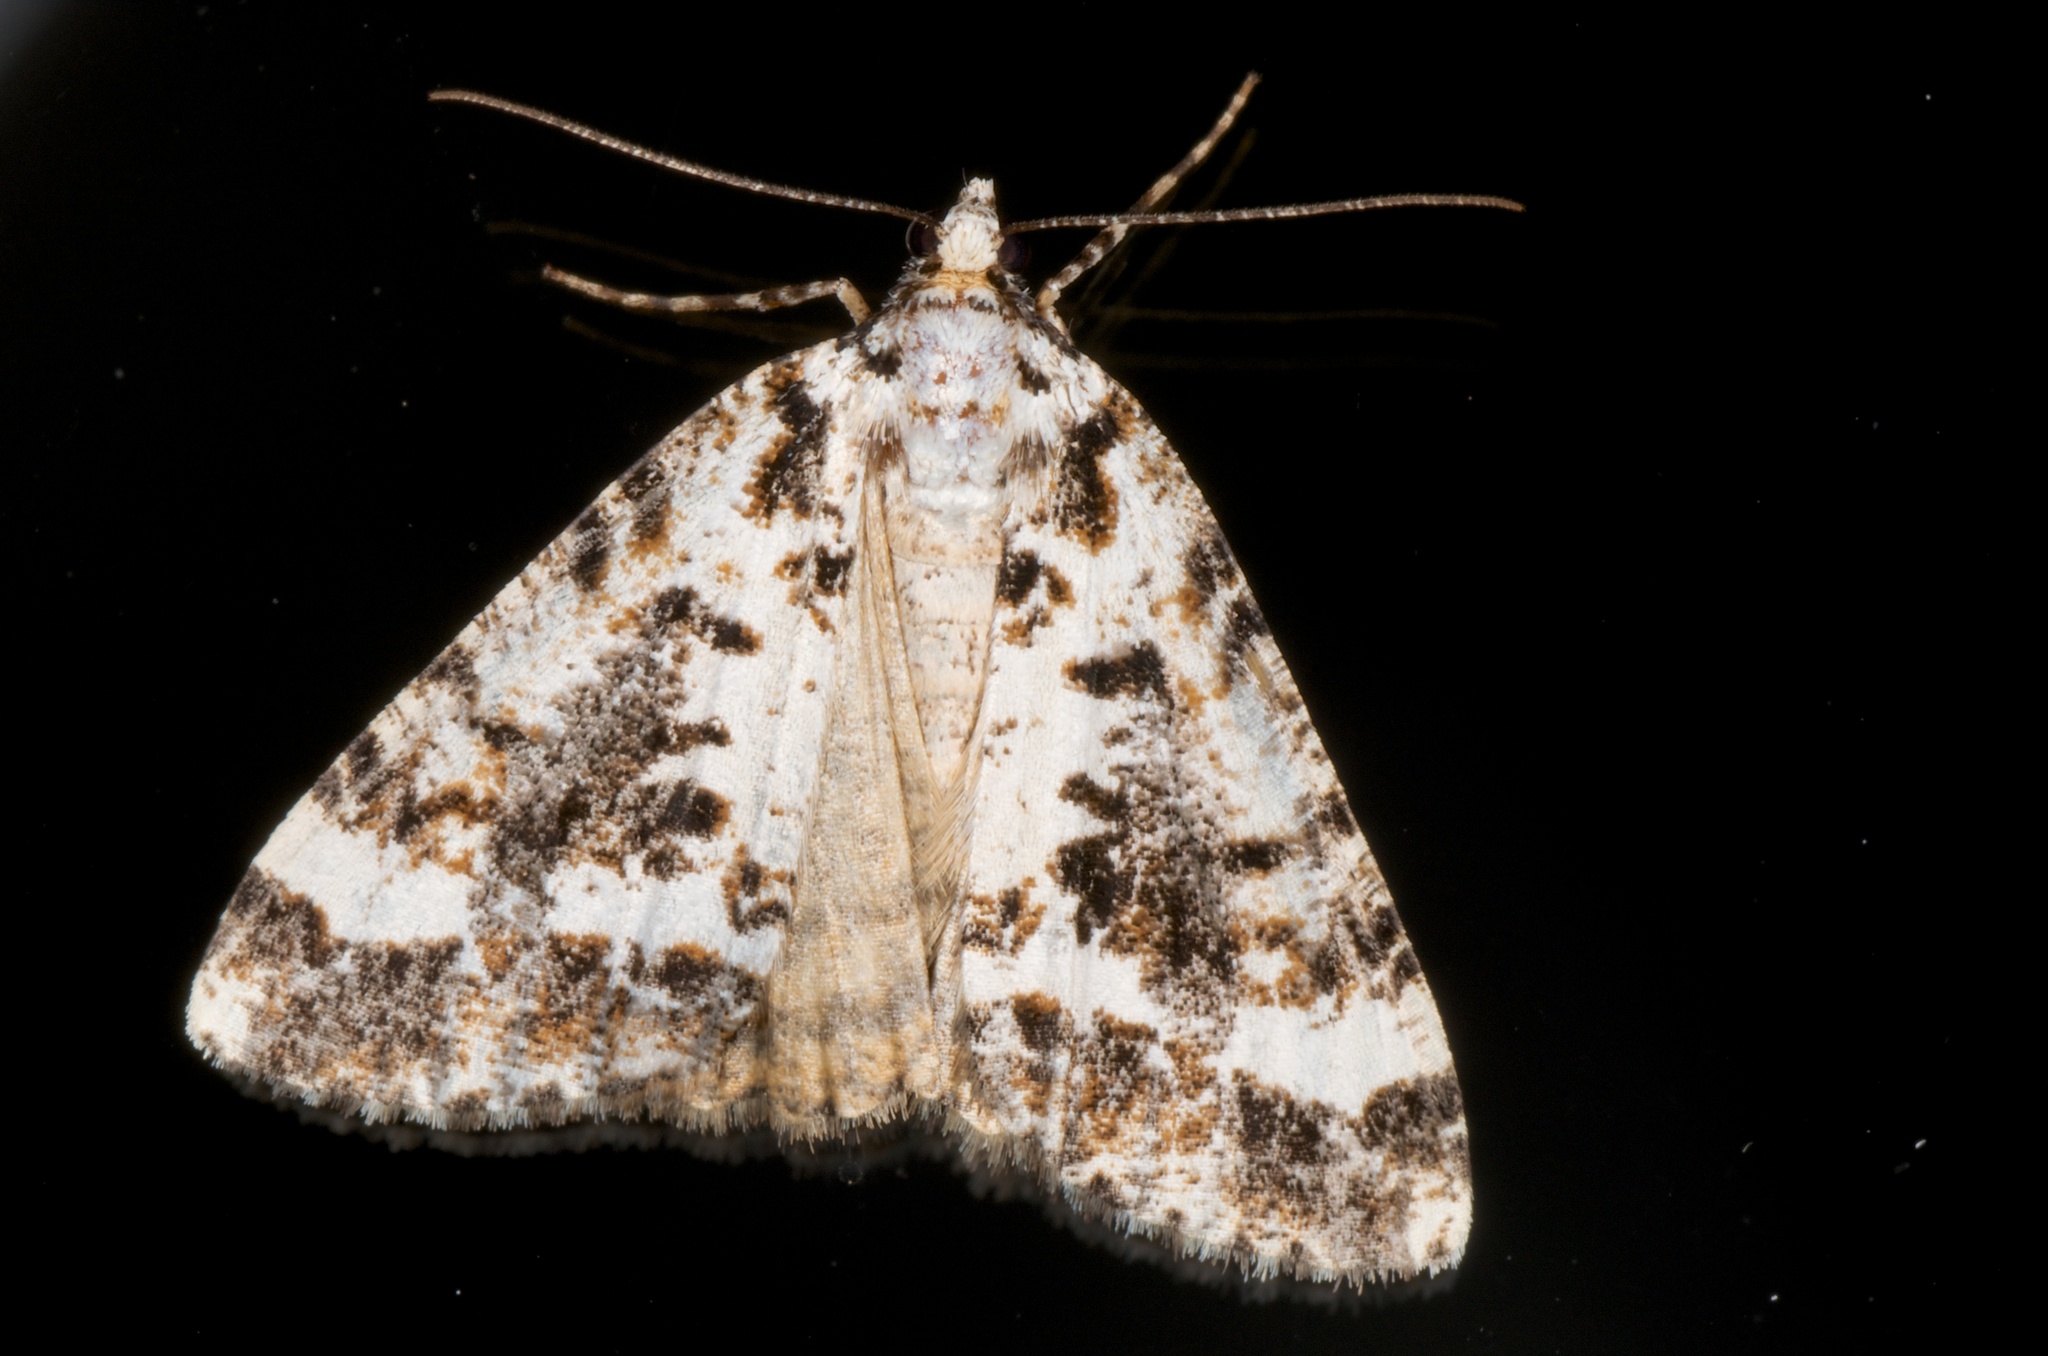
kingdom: Animalia
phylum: Arthropoda
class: Insecta
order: Lepidoptera
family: Geometridae
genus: Pseudocoremia
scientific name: Pseudocoremia leucelaea
